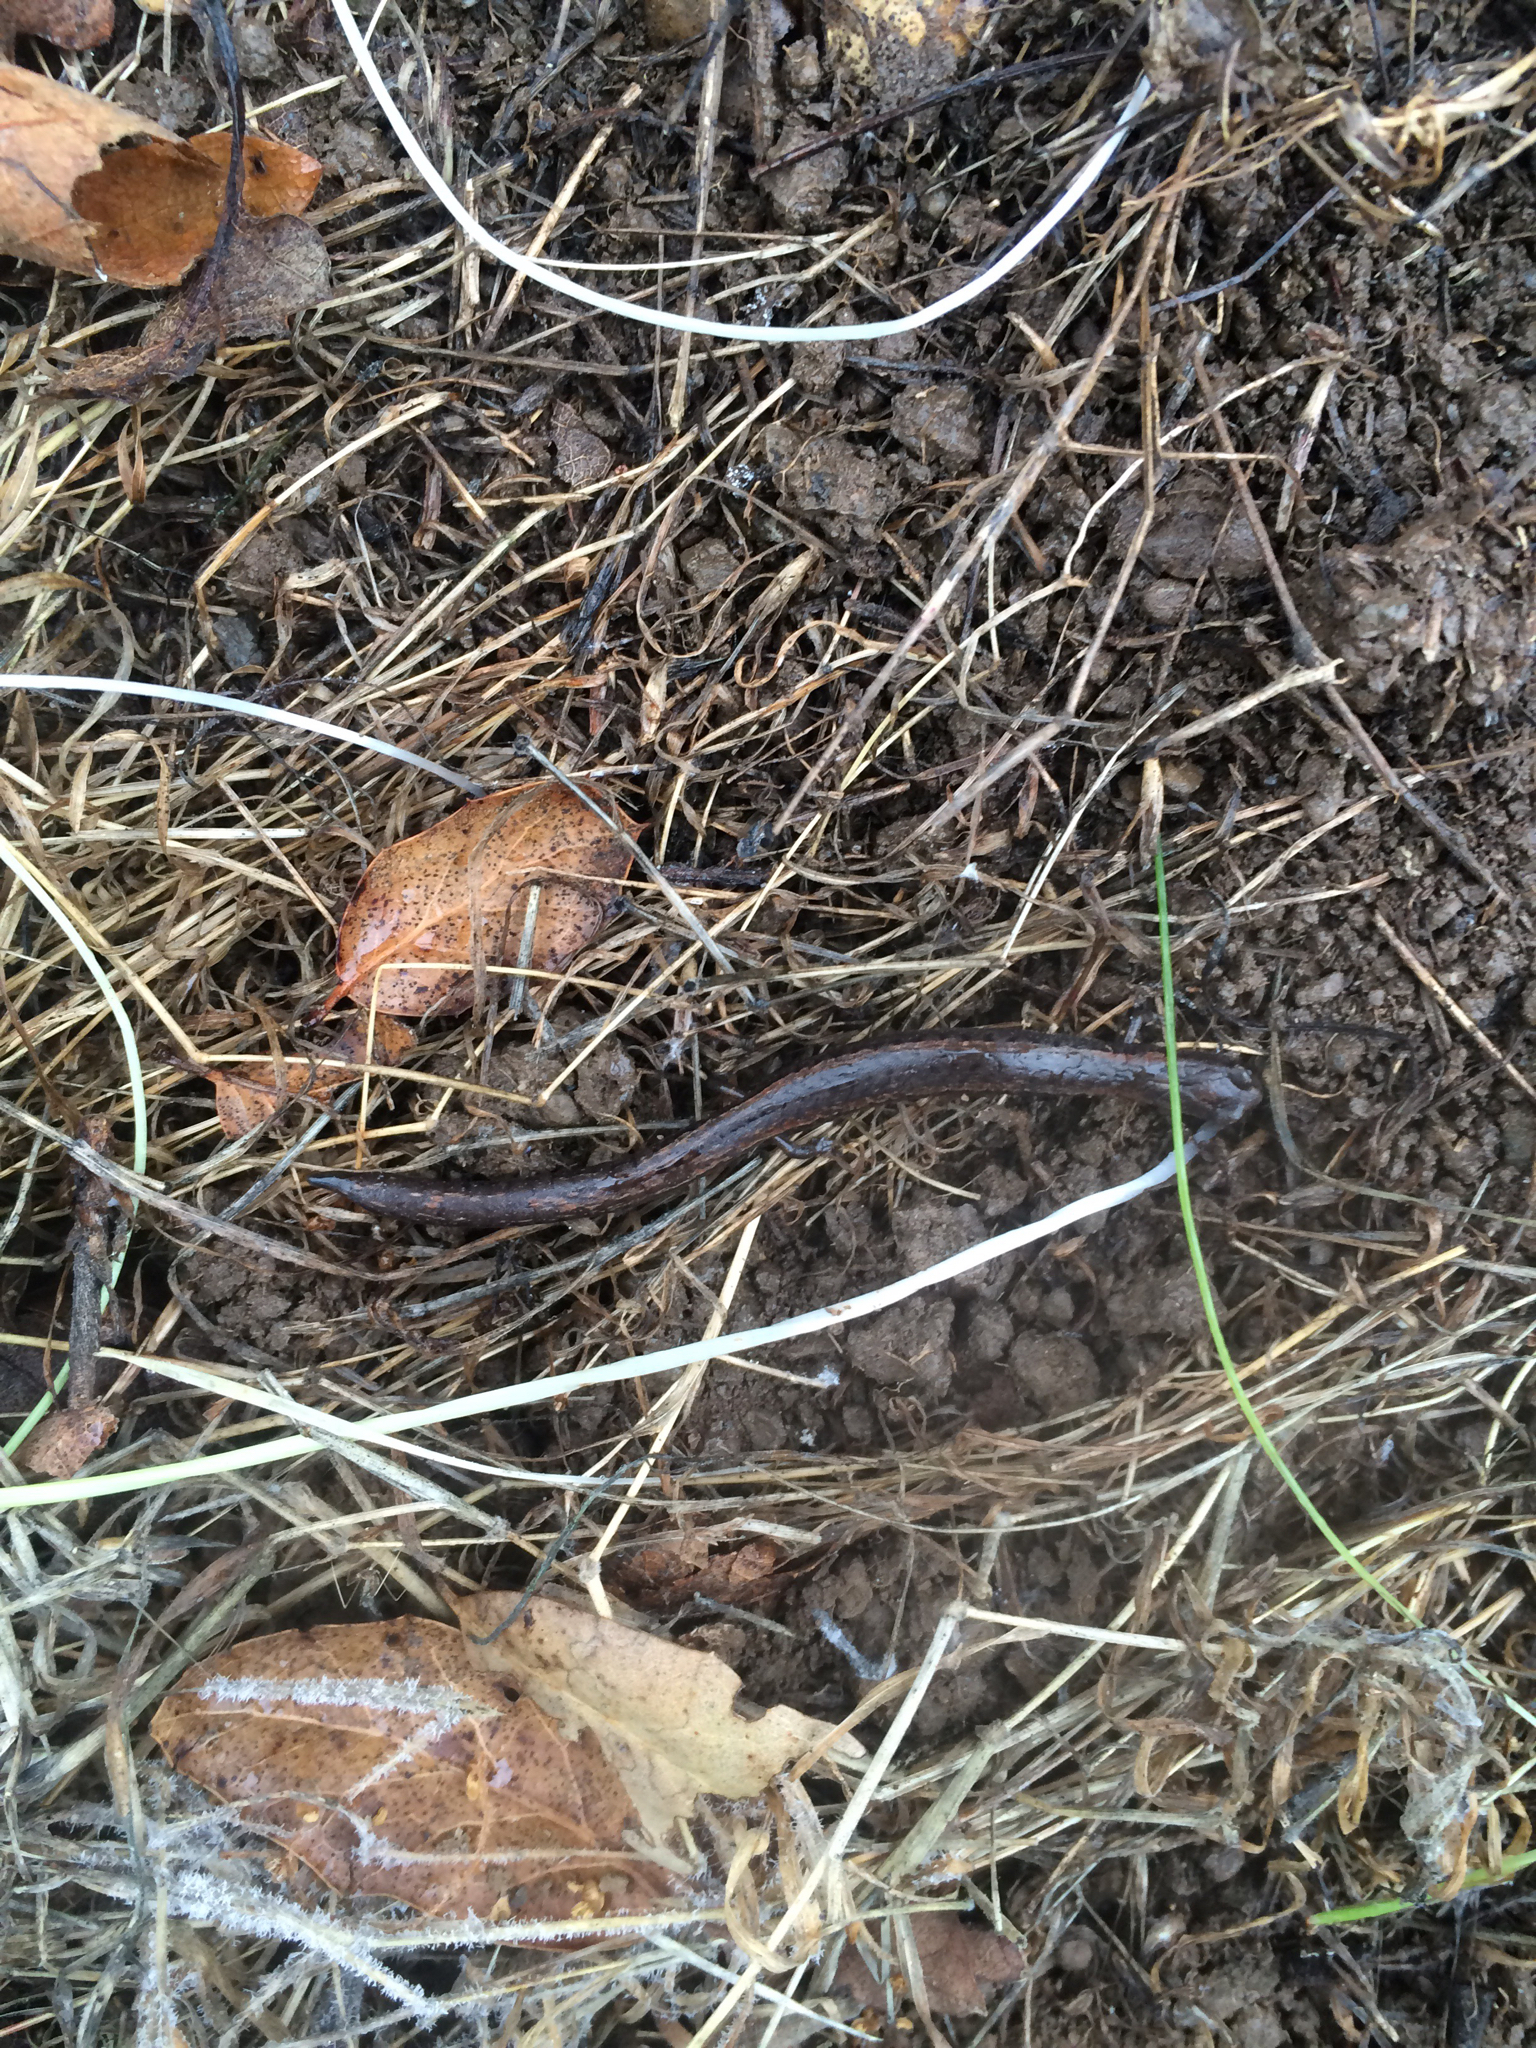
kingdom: Animalia
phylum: Chordata
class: Amphibia
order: Caudata
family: Plethodontidae
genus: Batrachoseps
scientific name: Batrachoseps attenuatus
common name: California slender salamander
